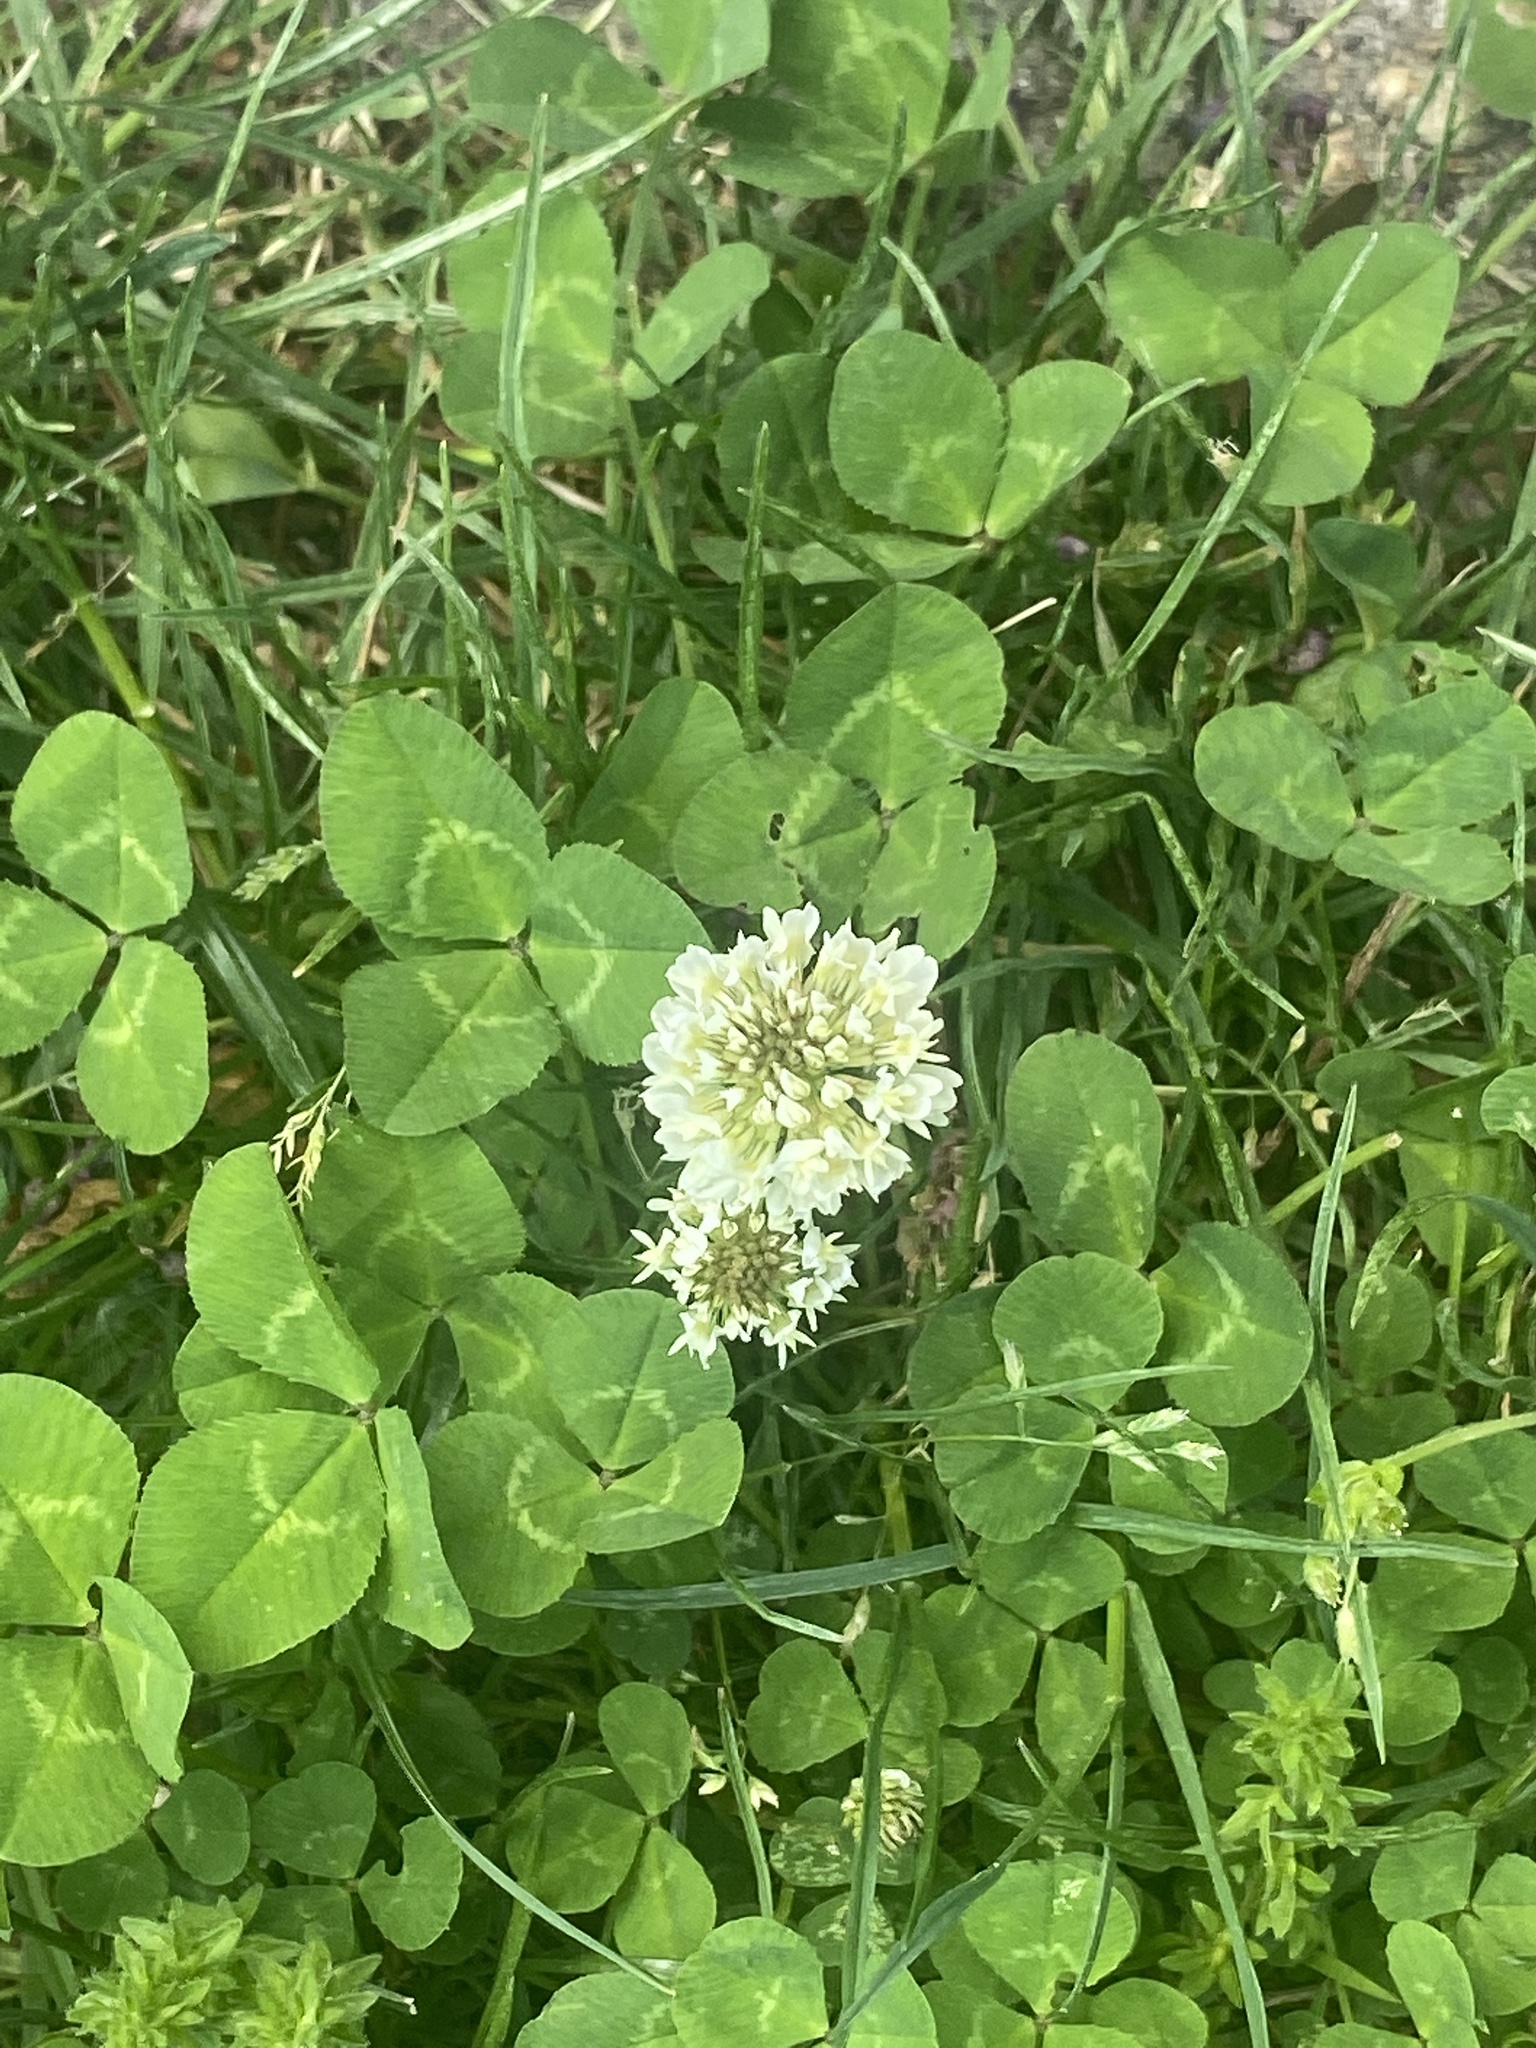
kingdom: Plantae
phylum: Tracheophyta
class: Magnoliopsida
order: Fabales
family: Fabaceae
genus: Trifolium
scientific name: Trifolium repens
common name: White clover
